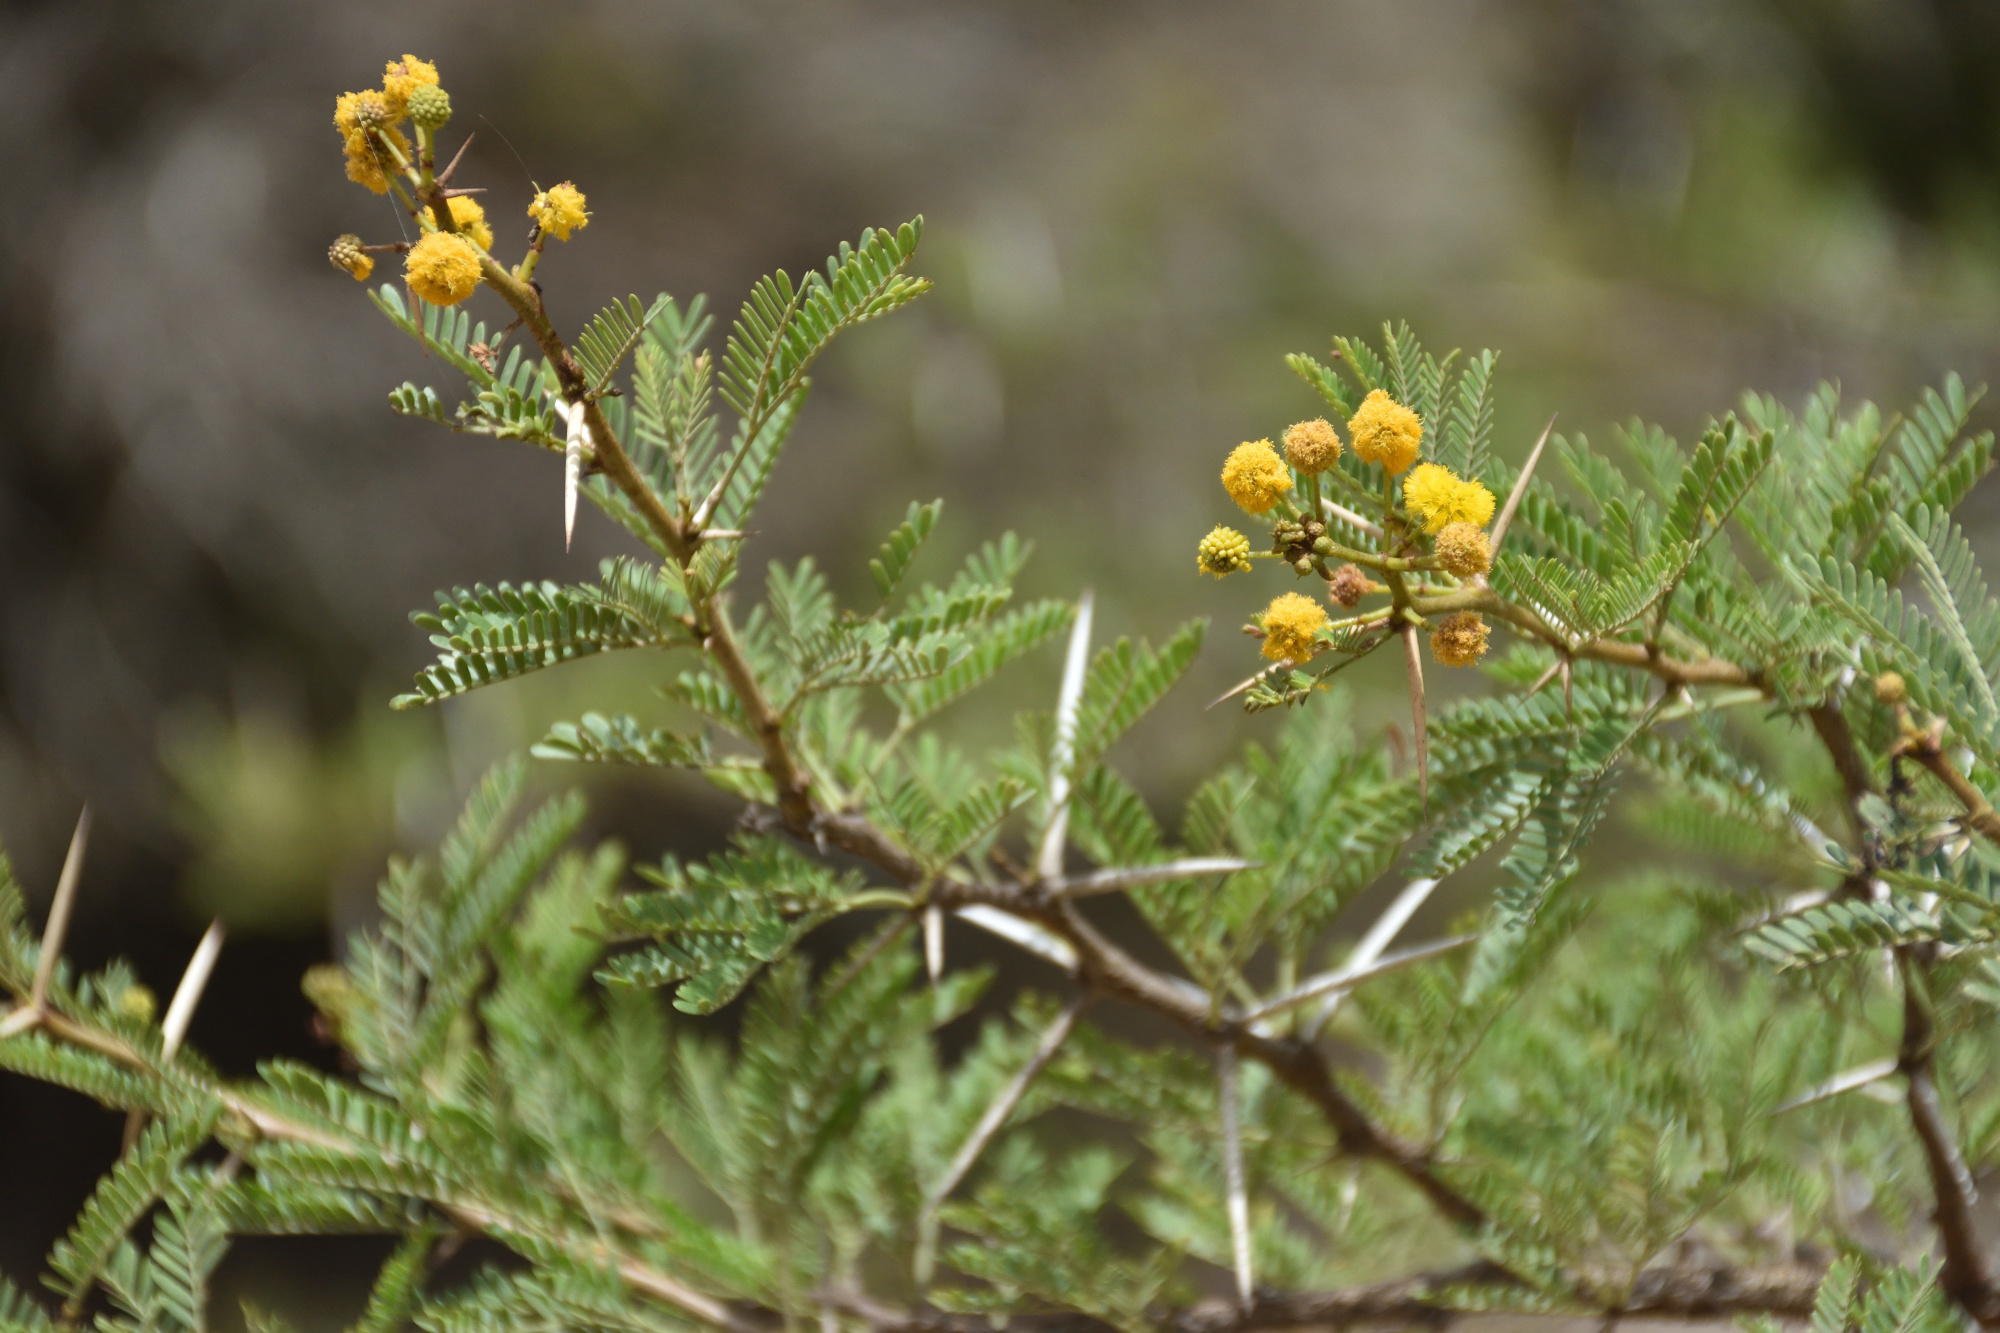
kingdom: Plantae
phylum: Tracheophyta
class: Magnoliopsida
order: Fabales
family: Fabaceae
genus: Vachellia
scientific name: Vachellia karroo
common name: Sweet thorn
